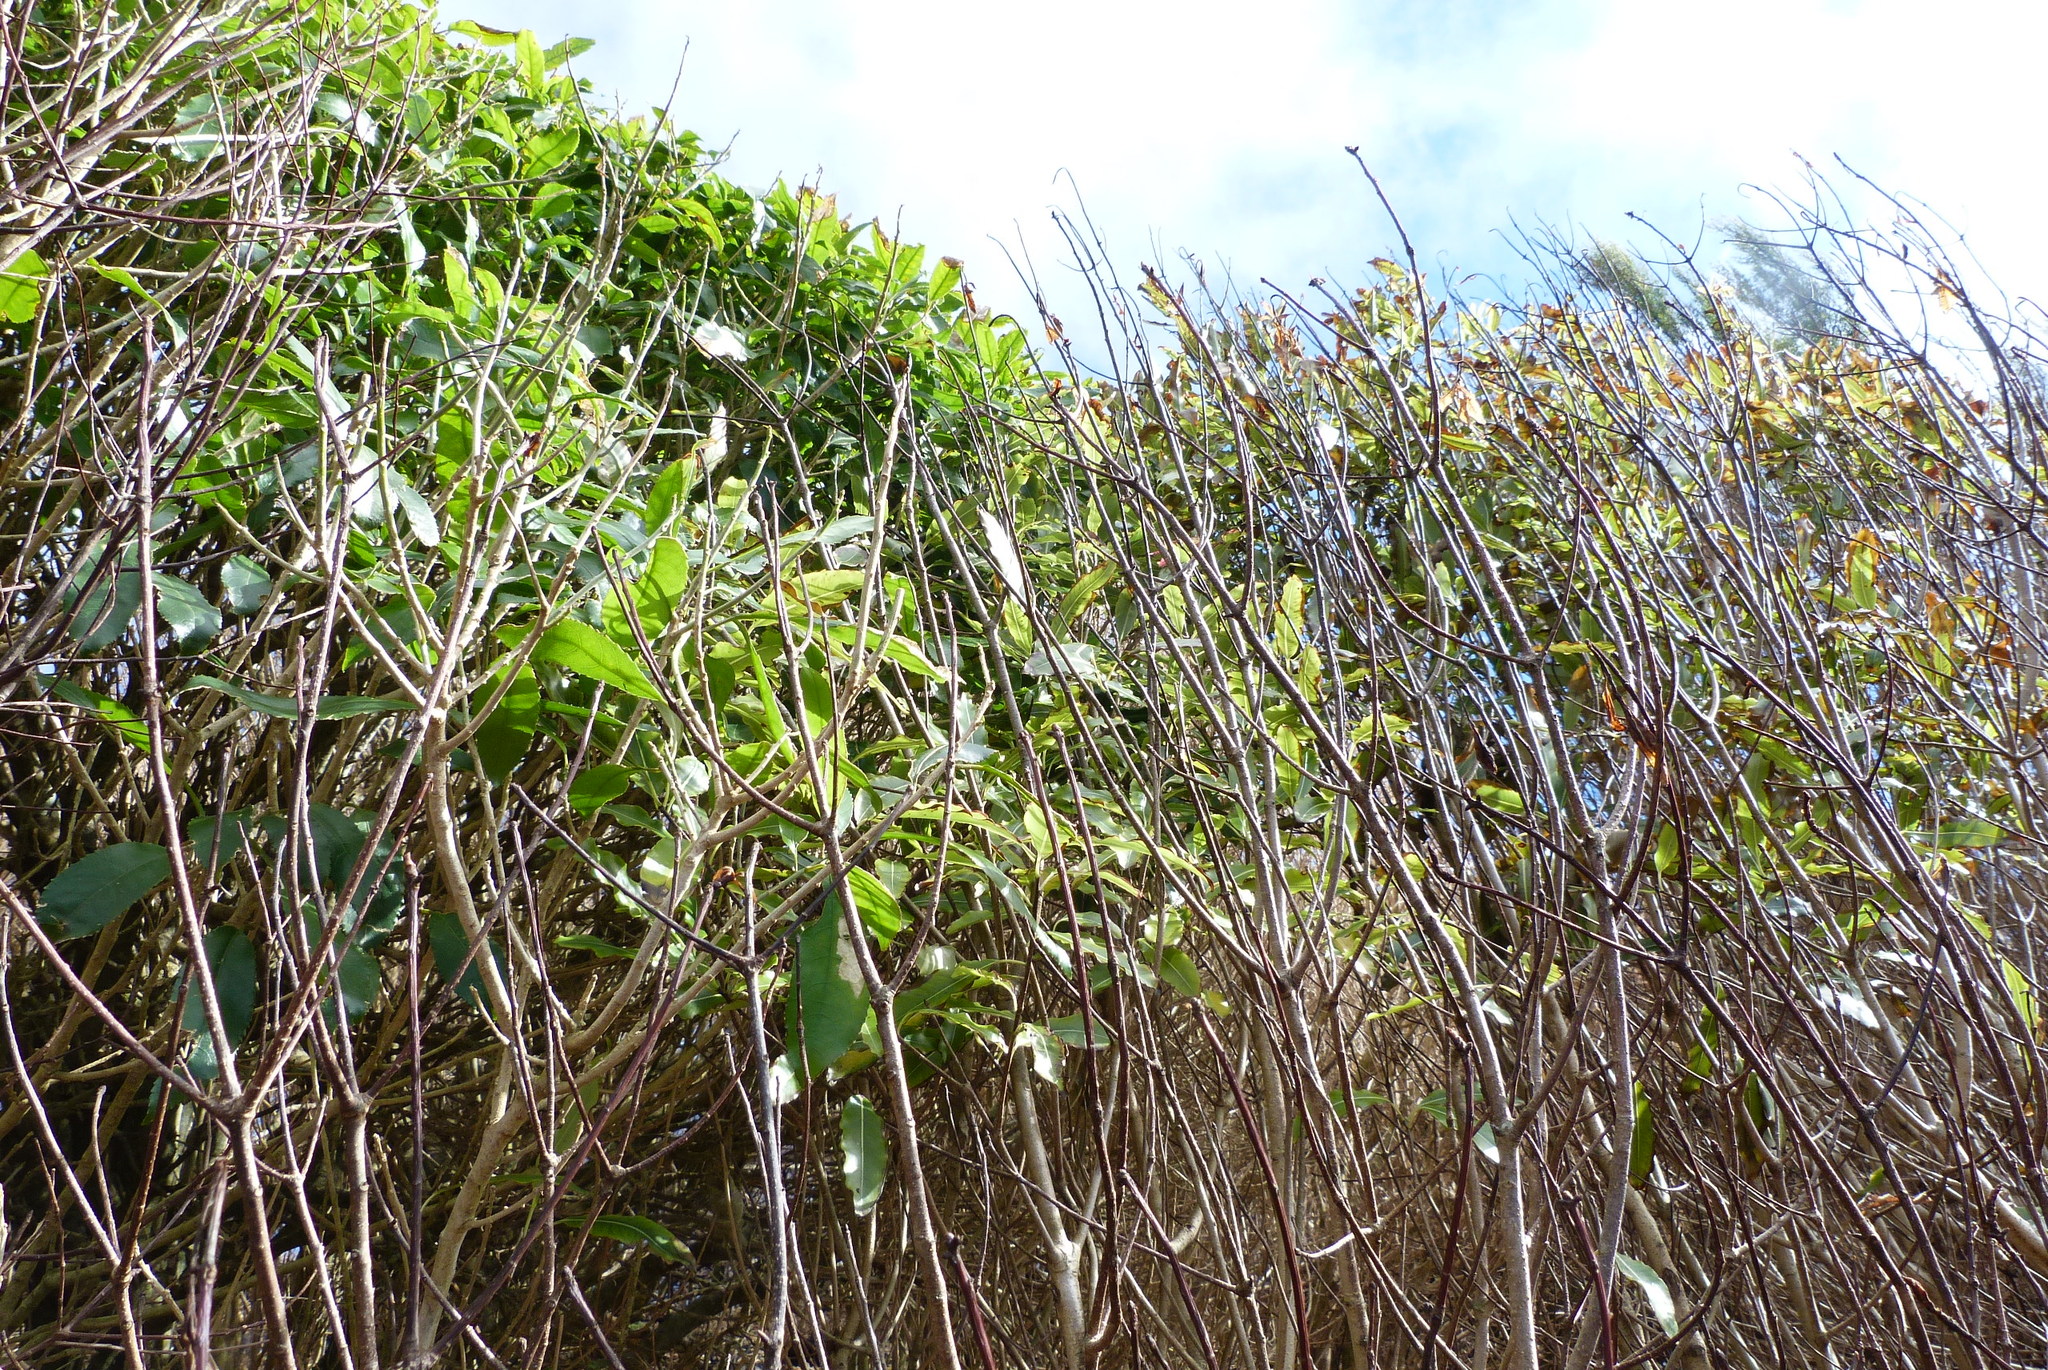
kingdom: Plantae
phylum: Tracheophyta
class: Magnoliopsida
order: Apiales
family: Pittosporaceae
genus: Pittosporum
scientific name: Pittosporum eugenioides
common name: Lemonwood
